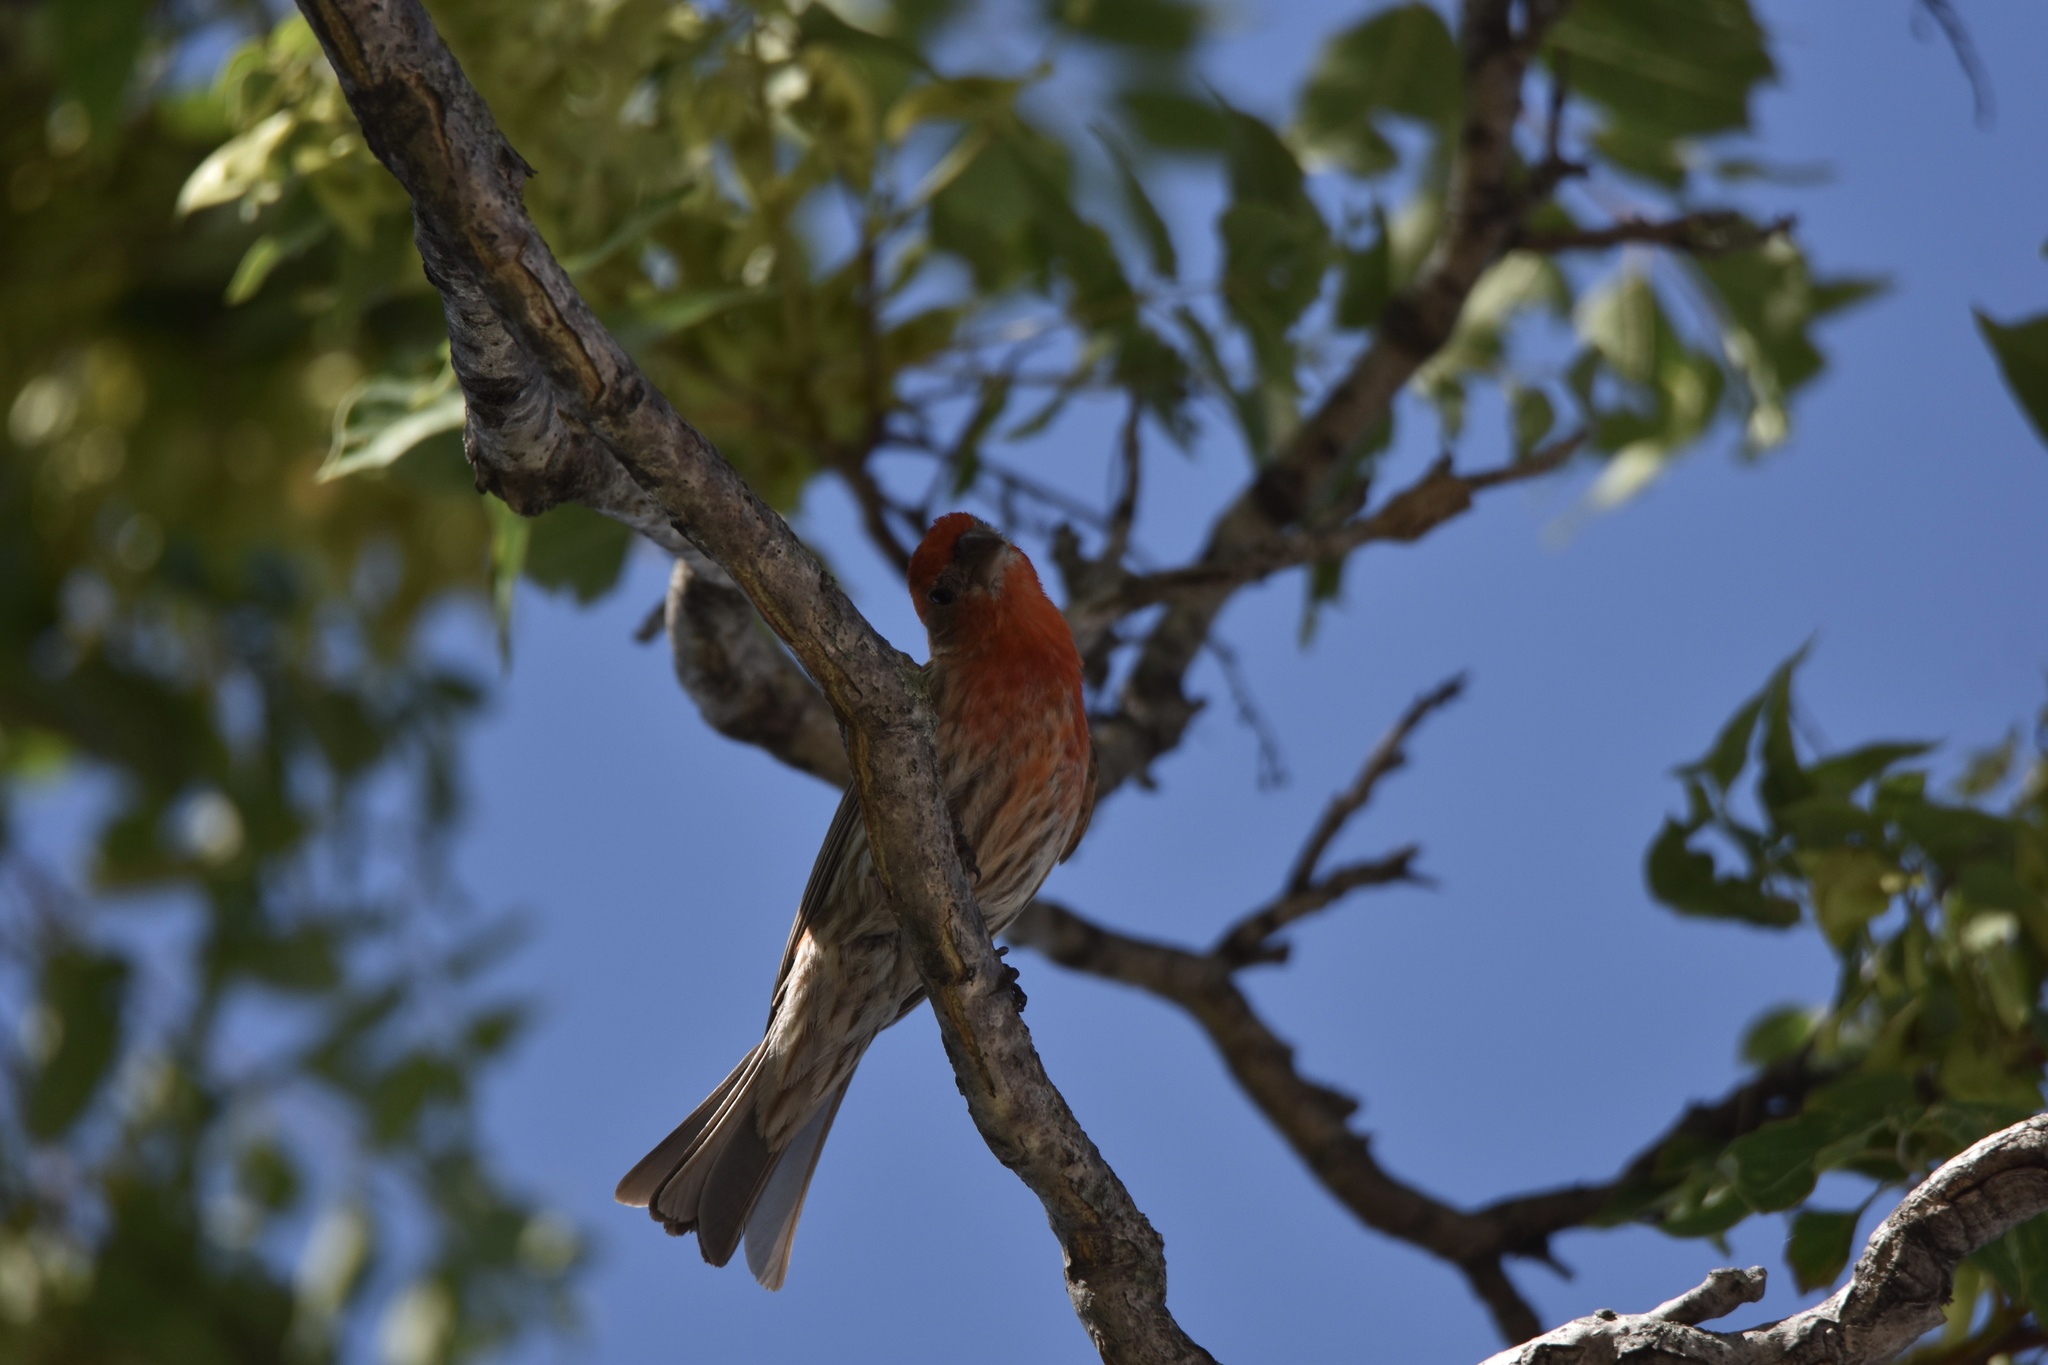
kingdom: Animalia
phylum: Chordata
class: Aves
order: Passeriformes
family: Fringillidae
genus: Haemorhous
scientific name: Haemorhous mexicanus
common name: House finch
